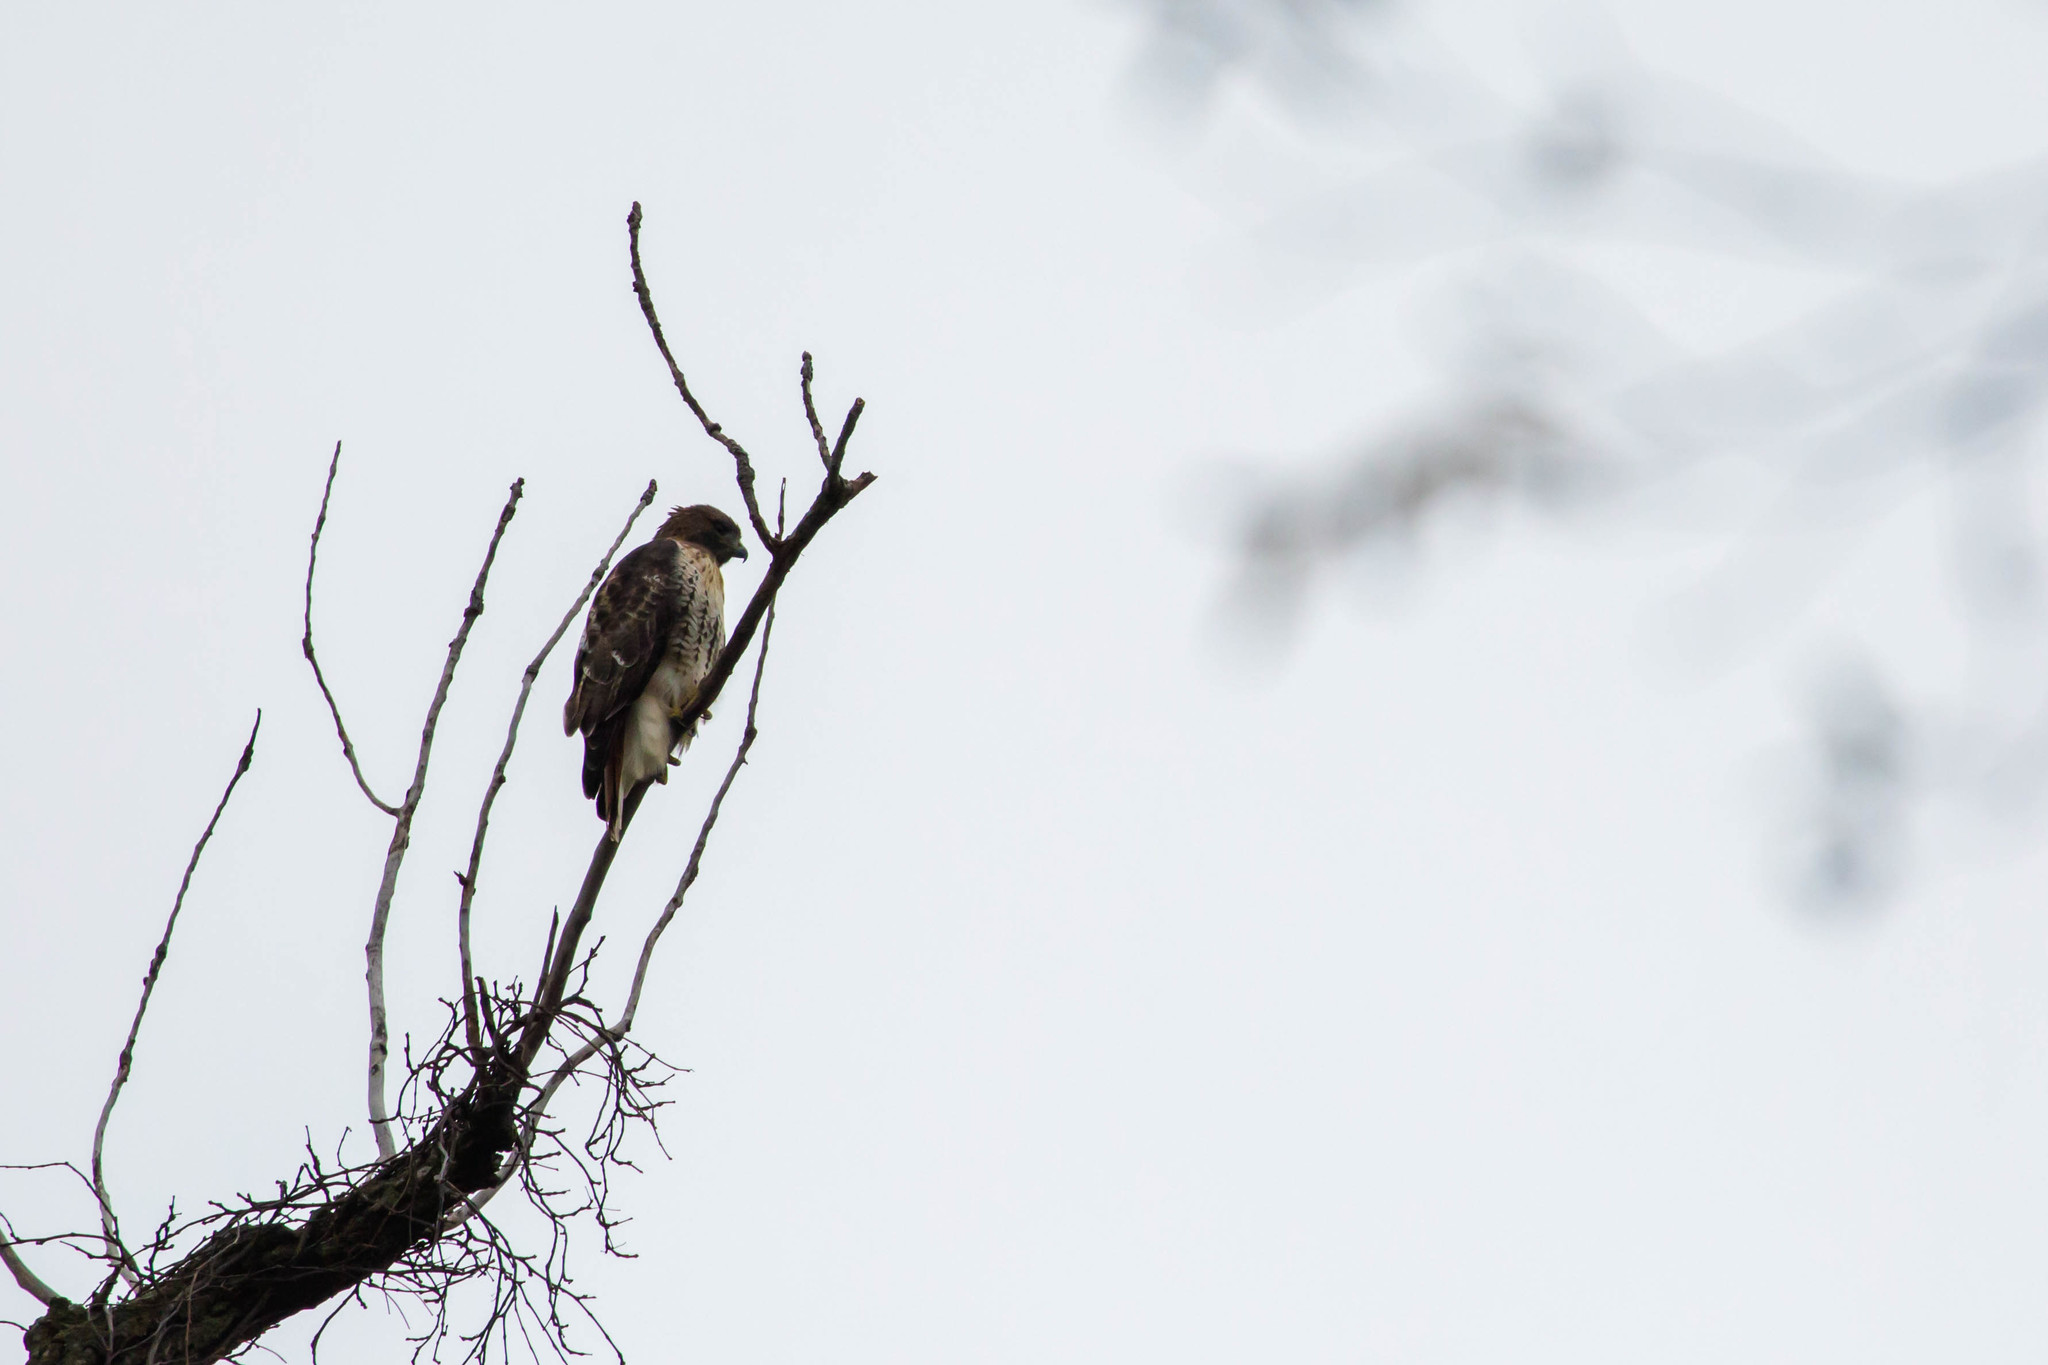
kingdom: Animalia
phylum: Chordata
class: Aves
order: Accipitriformes
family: Accipitridae
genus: Buteo
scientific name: Buteo jamaicensis
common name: Red-tailed hawk
